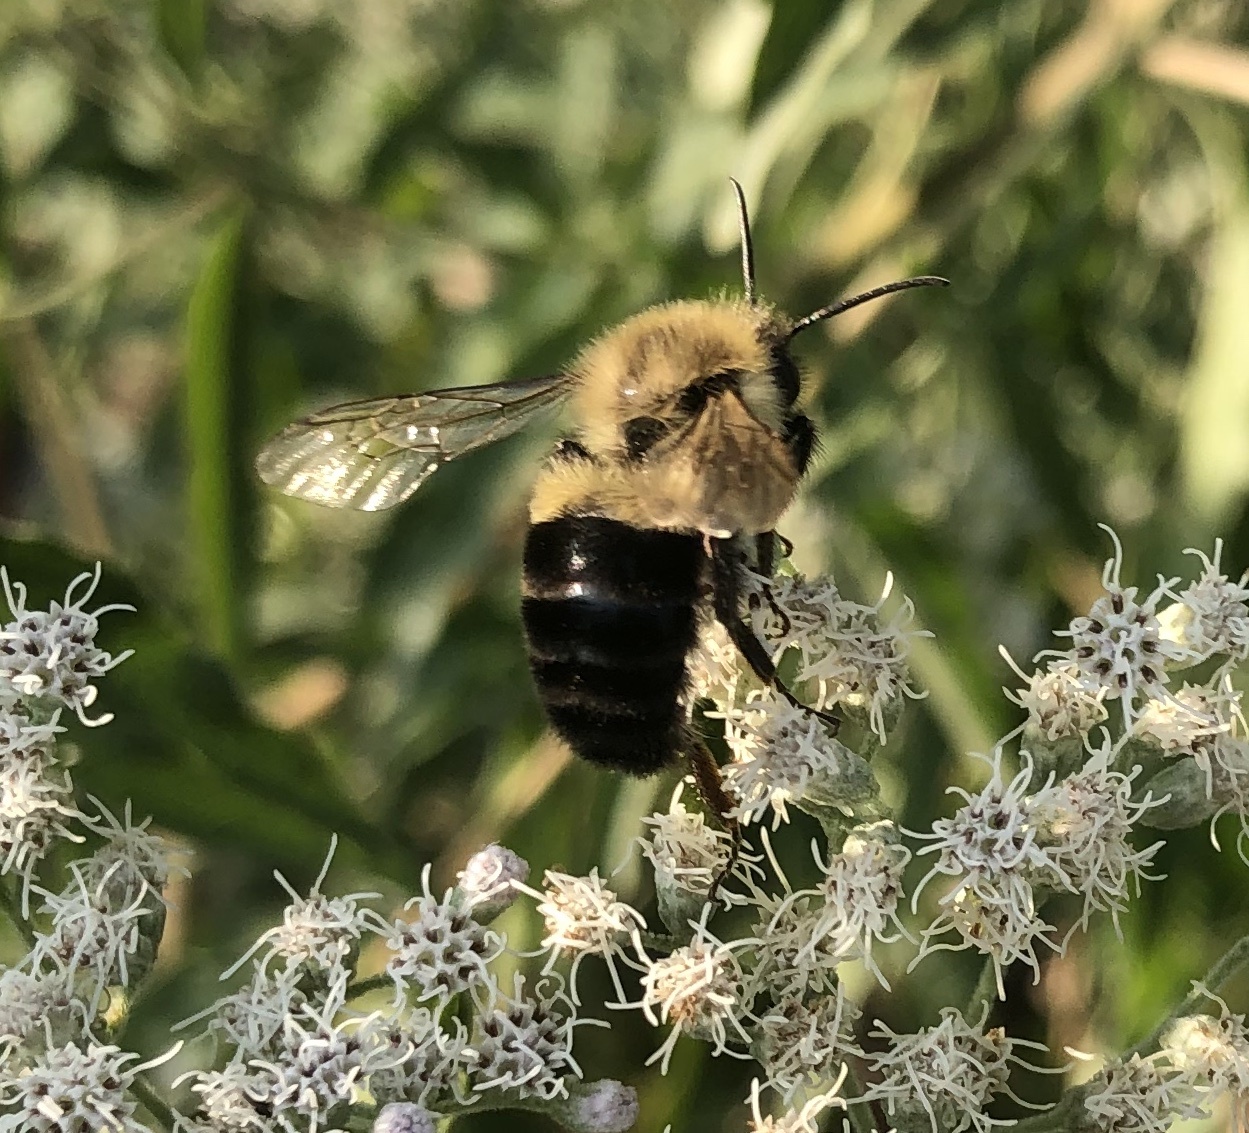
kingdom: Animalia
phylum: Arthropoda
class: Insecta
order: Hymenoptera
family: Apidae
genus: Bombus
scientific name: Bombus impatiens
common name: Common eastern bumble bee
